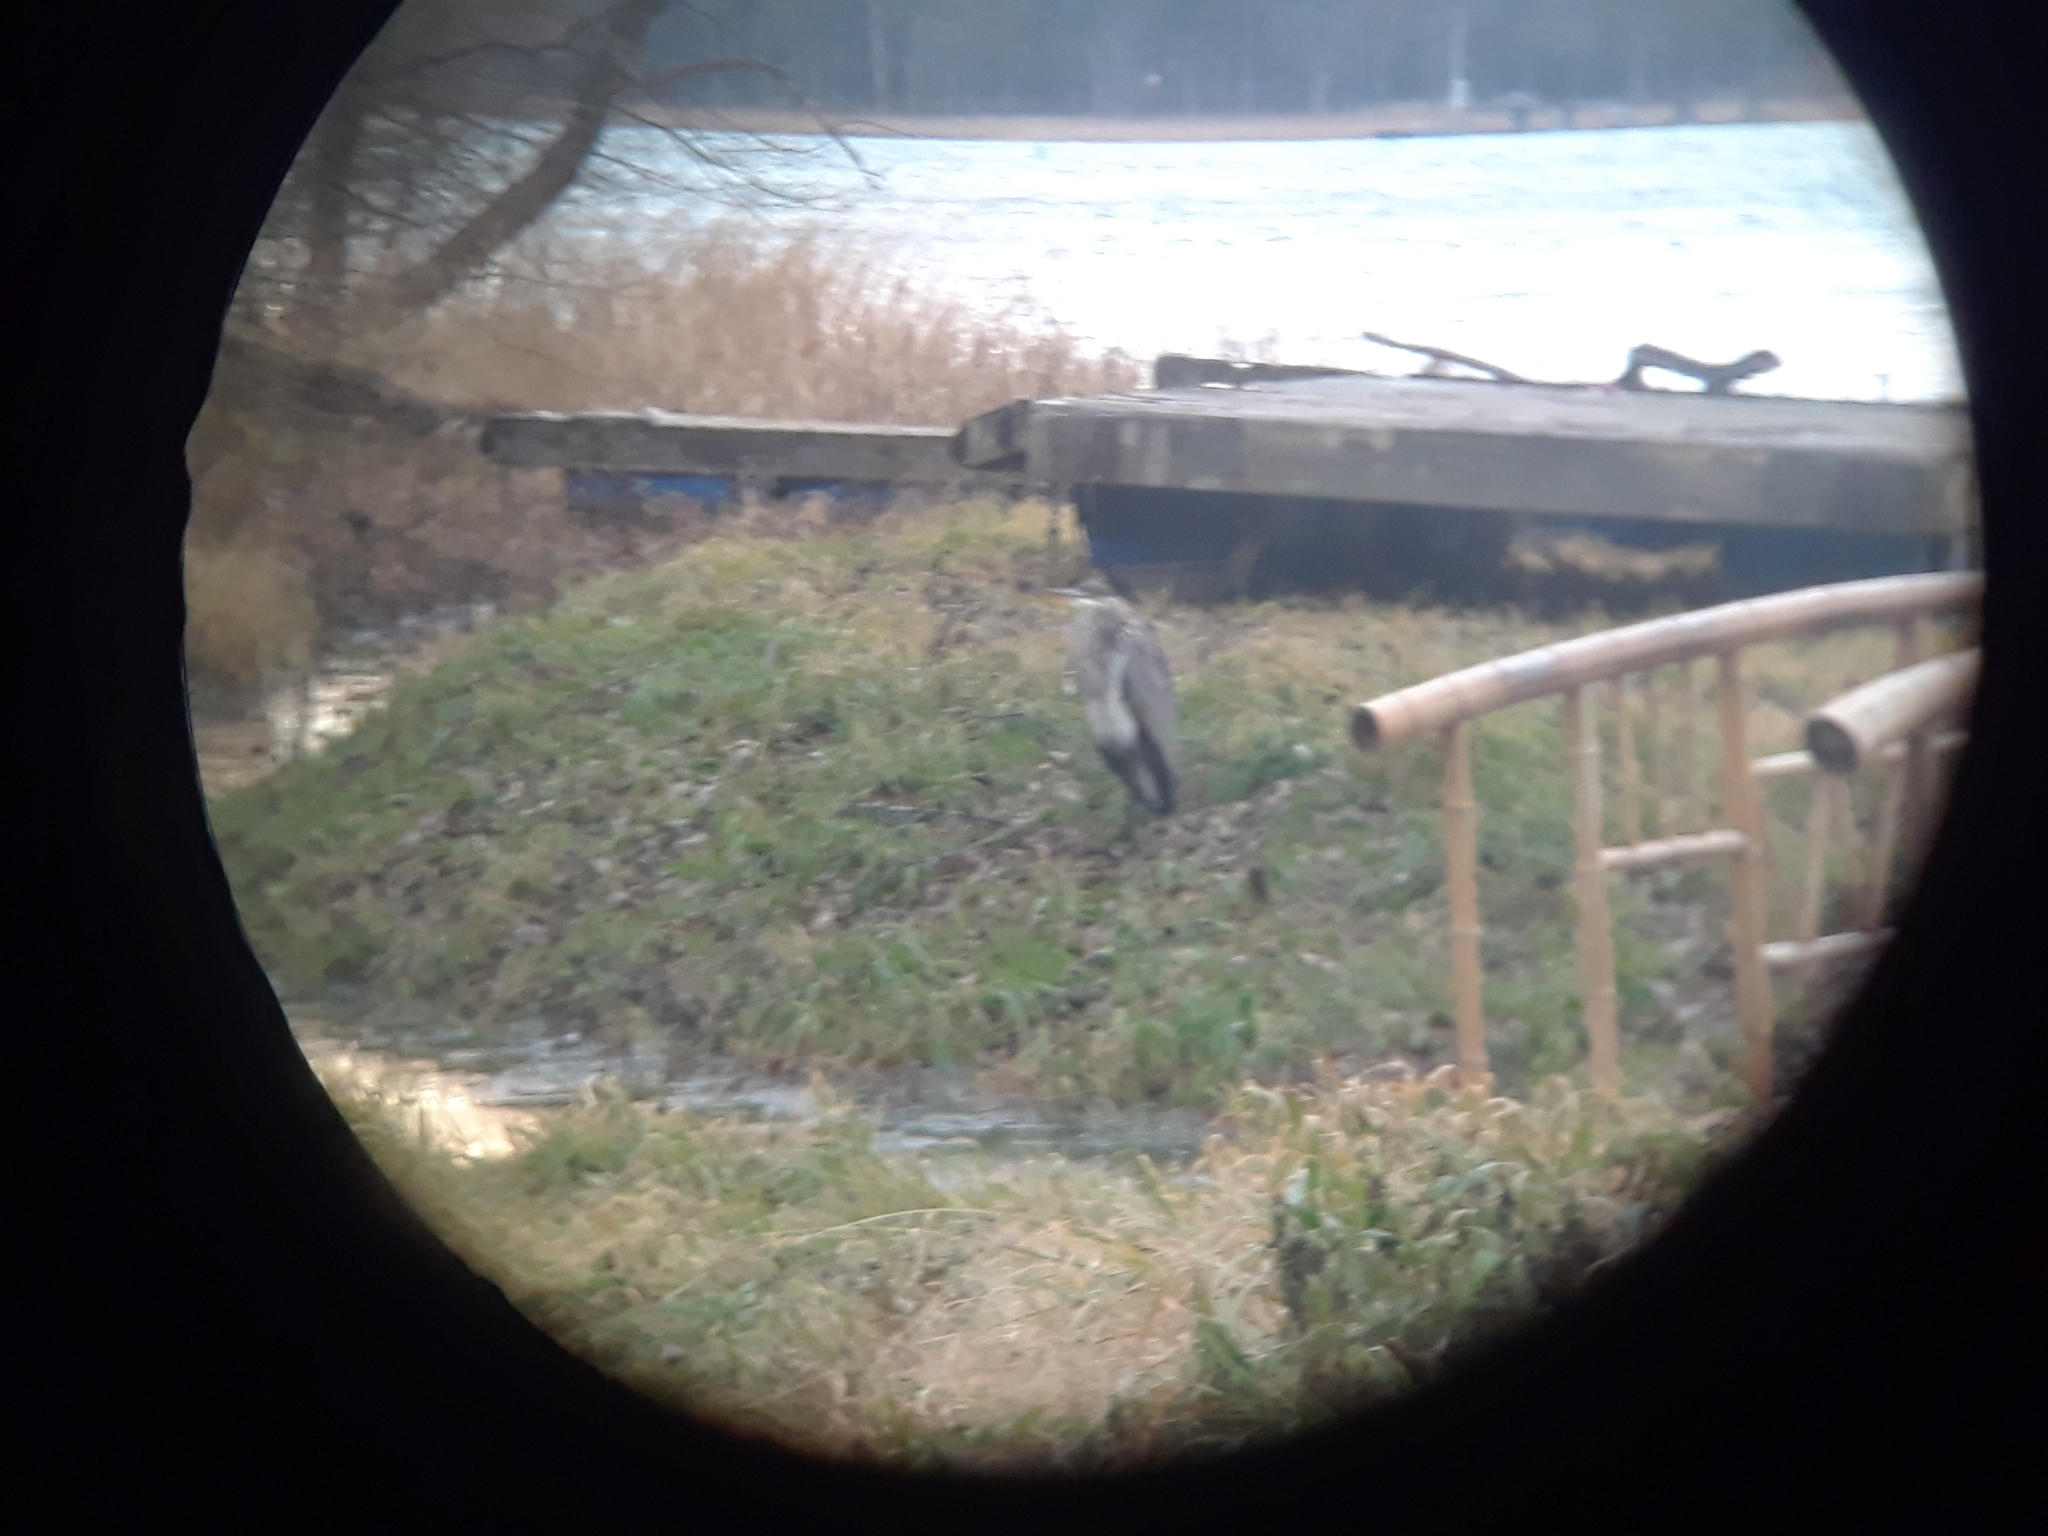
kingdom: Animalia
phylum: Chordata
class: Aves
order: Pelecaniformes
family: Ardeidae
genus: Ardea
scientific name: Ardea herodias
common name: Great blue heron
